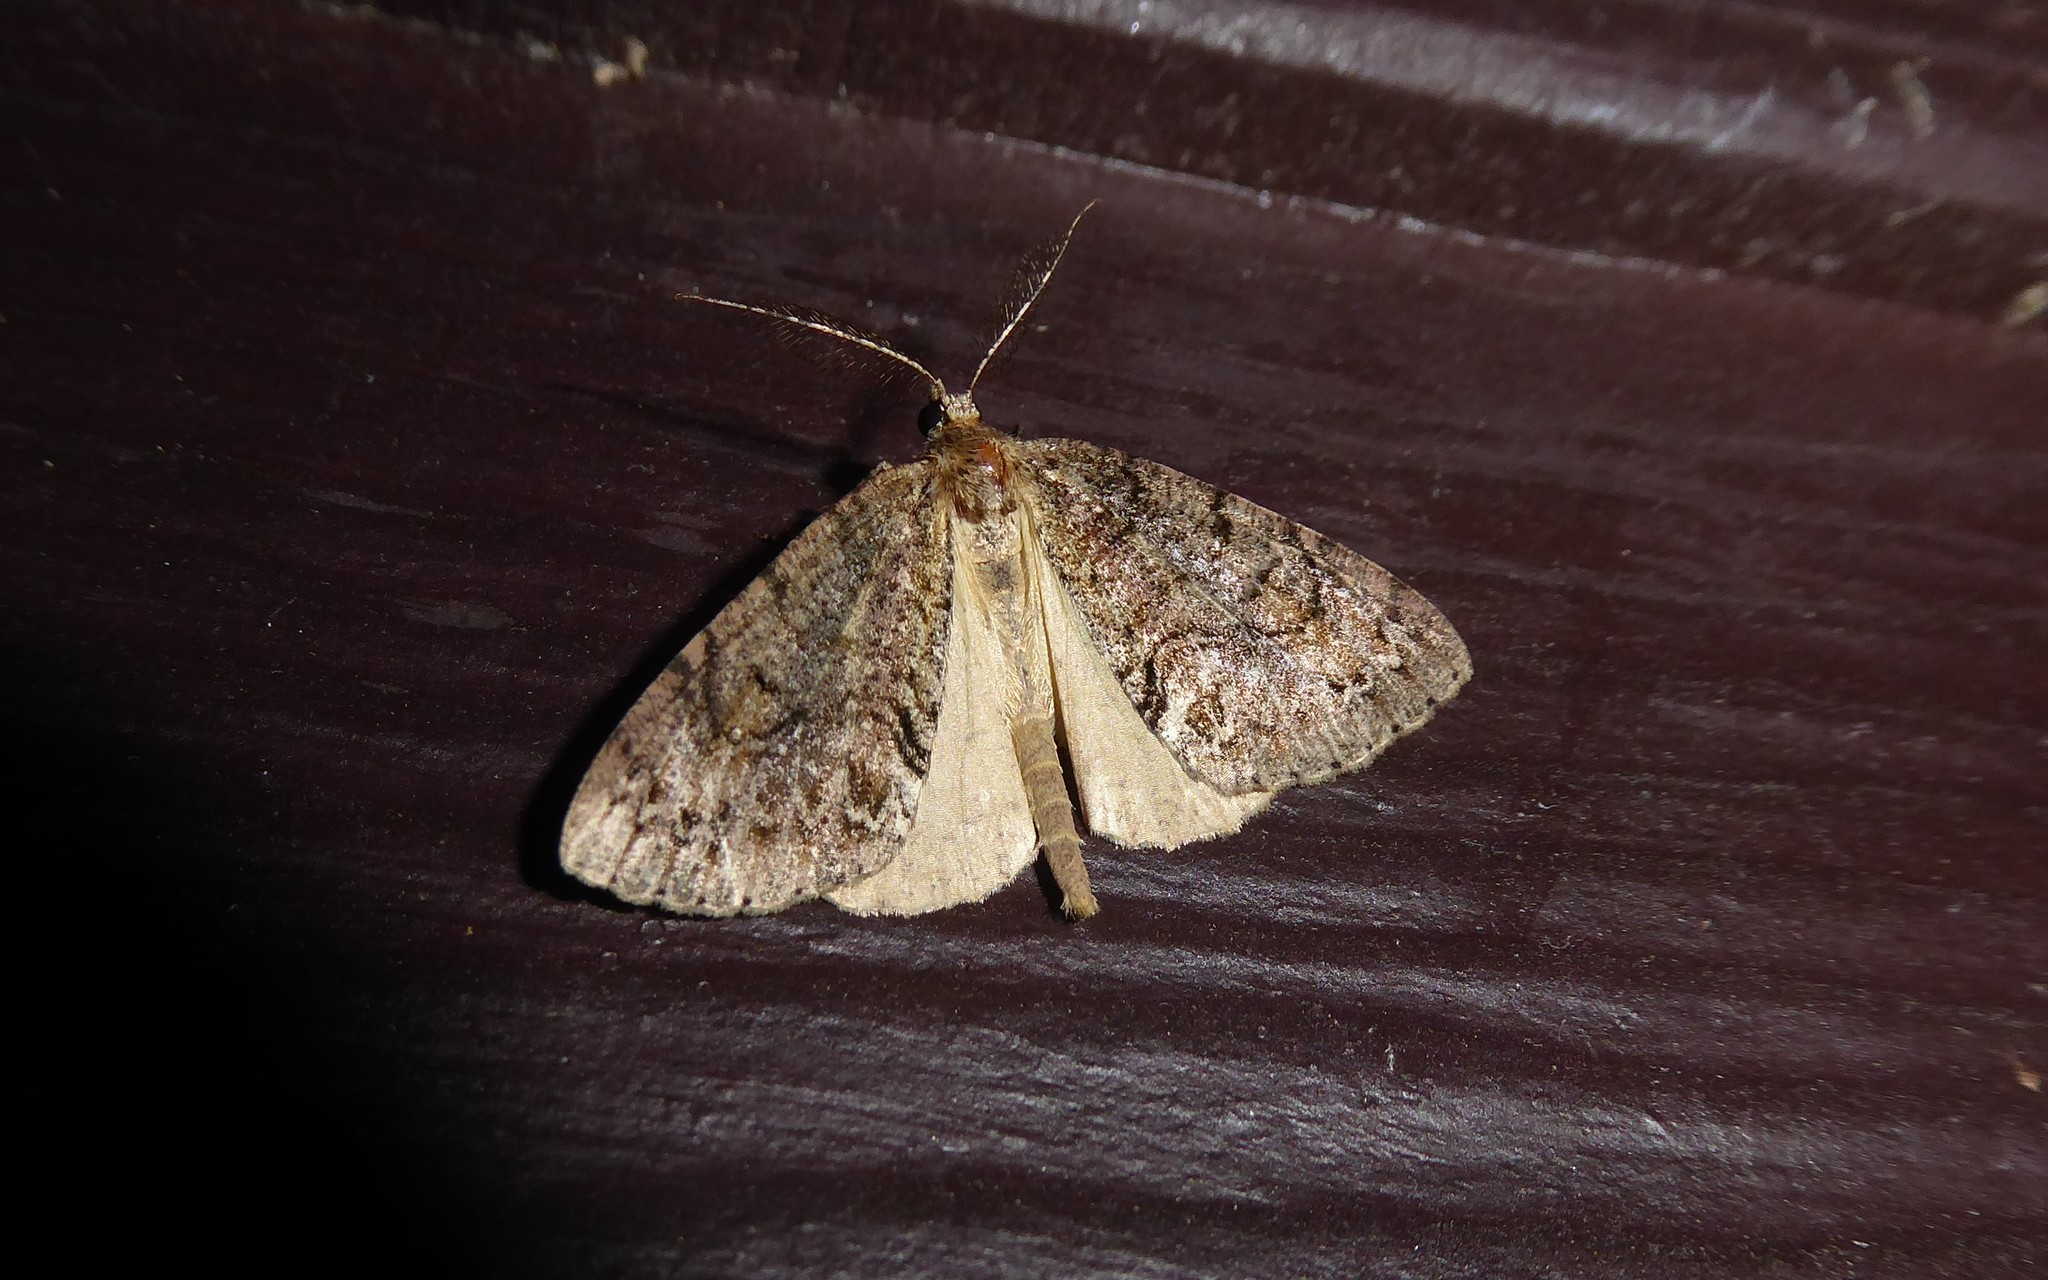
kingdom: Animalia
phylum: Arthropoda
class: Insecta
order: Lepidoptera
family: Geometridae
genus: Pseudocoremia
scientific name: Pseudocoremia suavis
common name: Common forest looper
